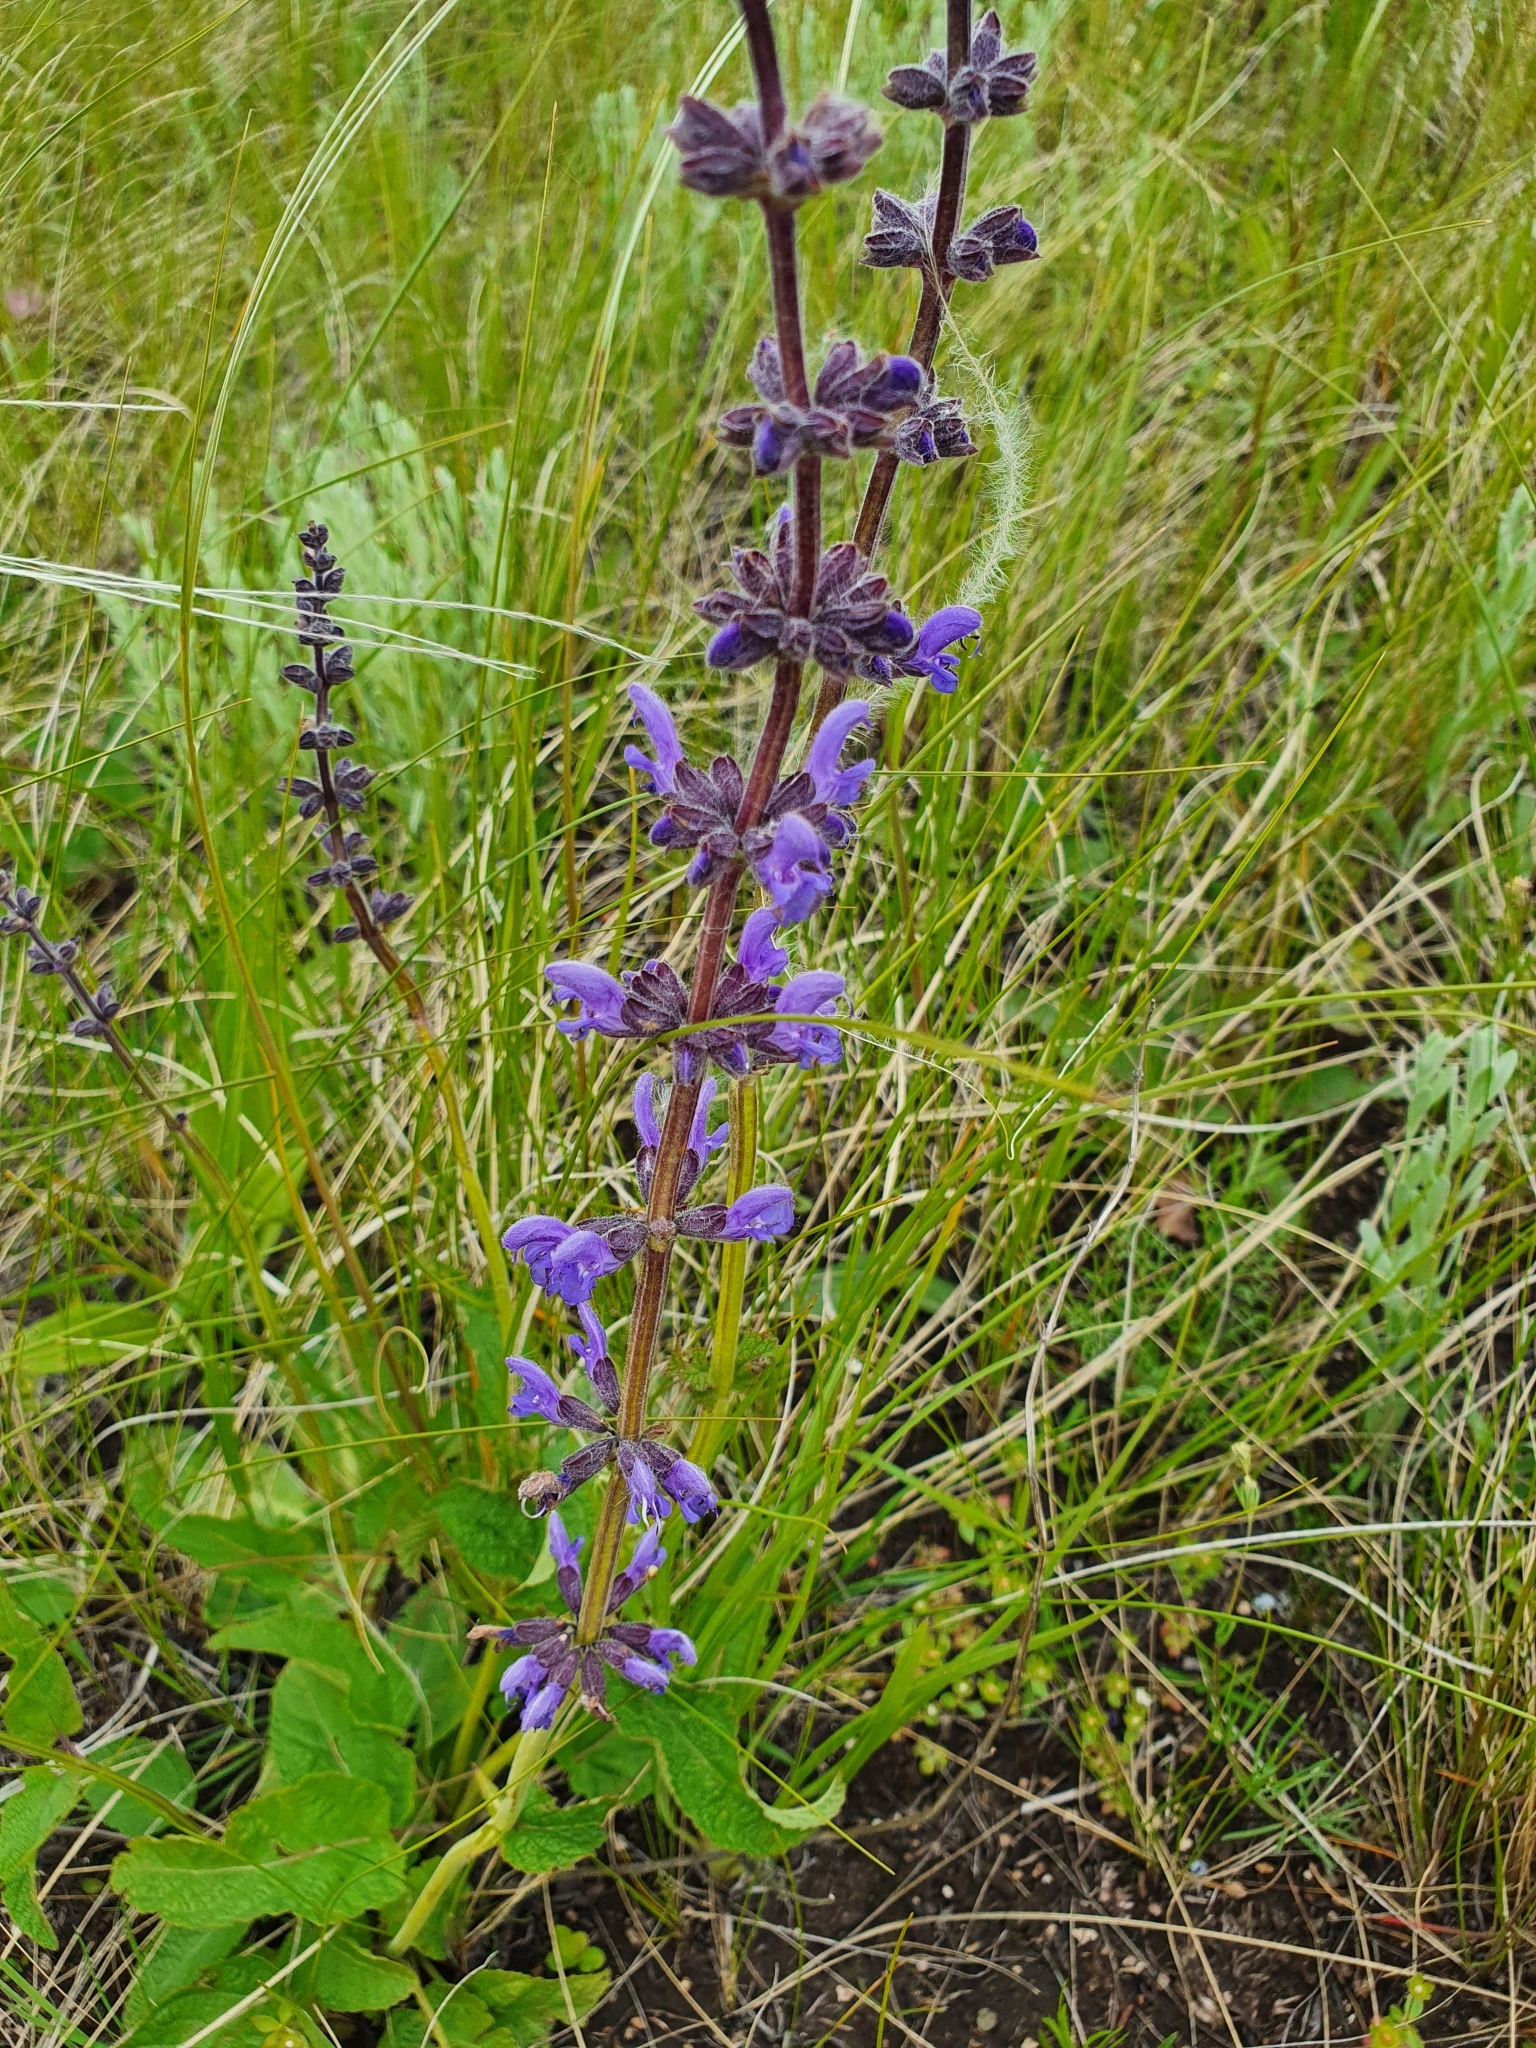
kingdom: Plantae
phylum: Tracheophyta
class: Magnoliopsida
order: Lamiales
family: Lamiaceae
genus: Salvia
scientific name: Salvia dumetorum
